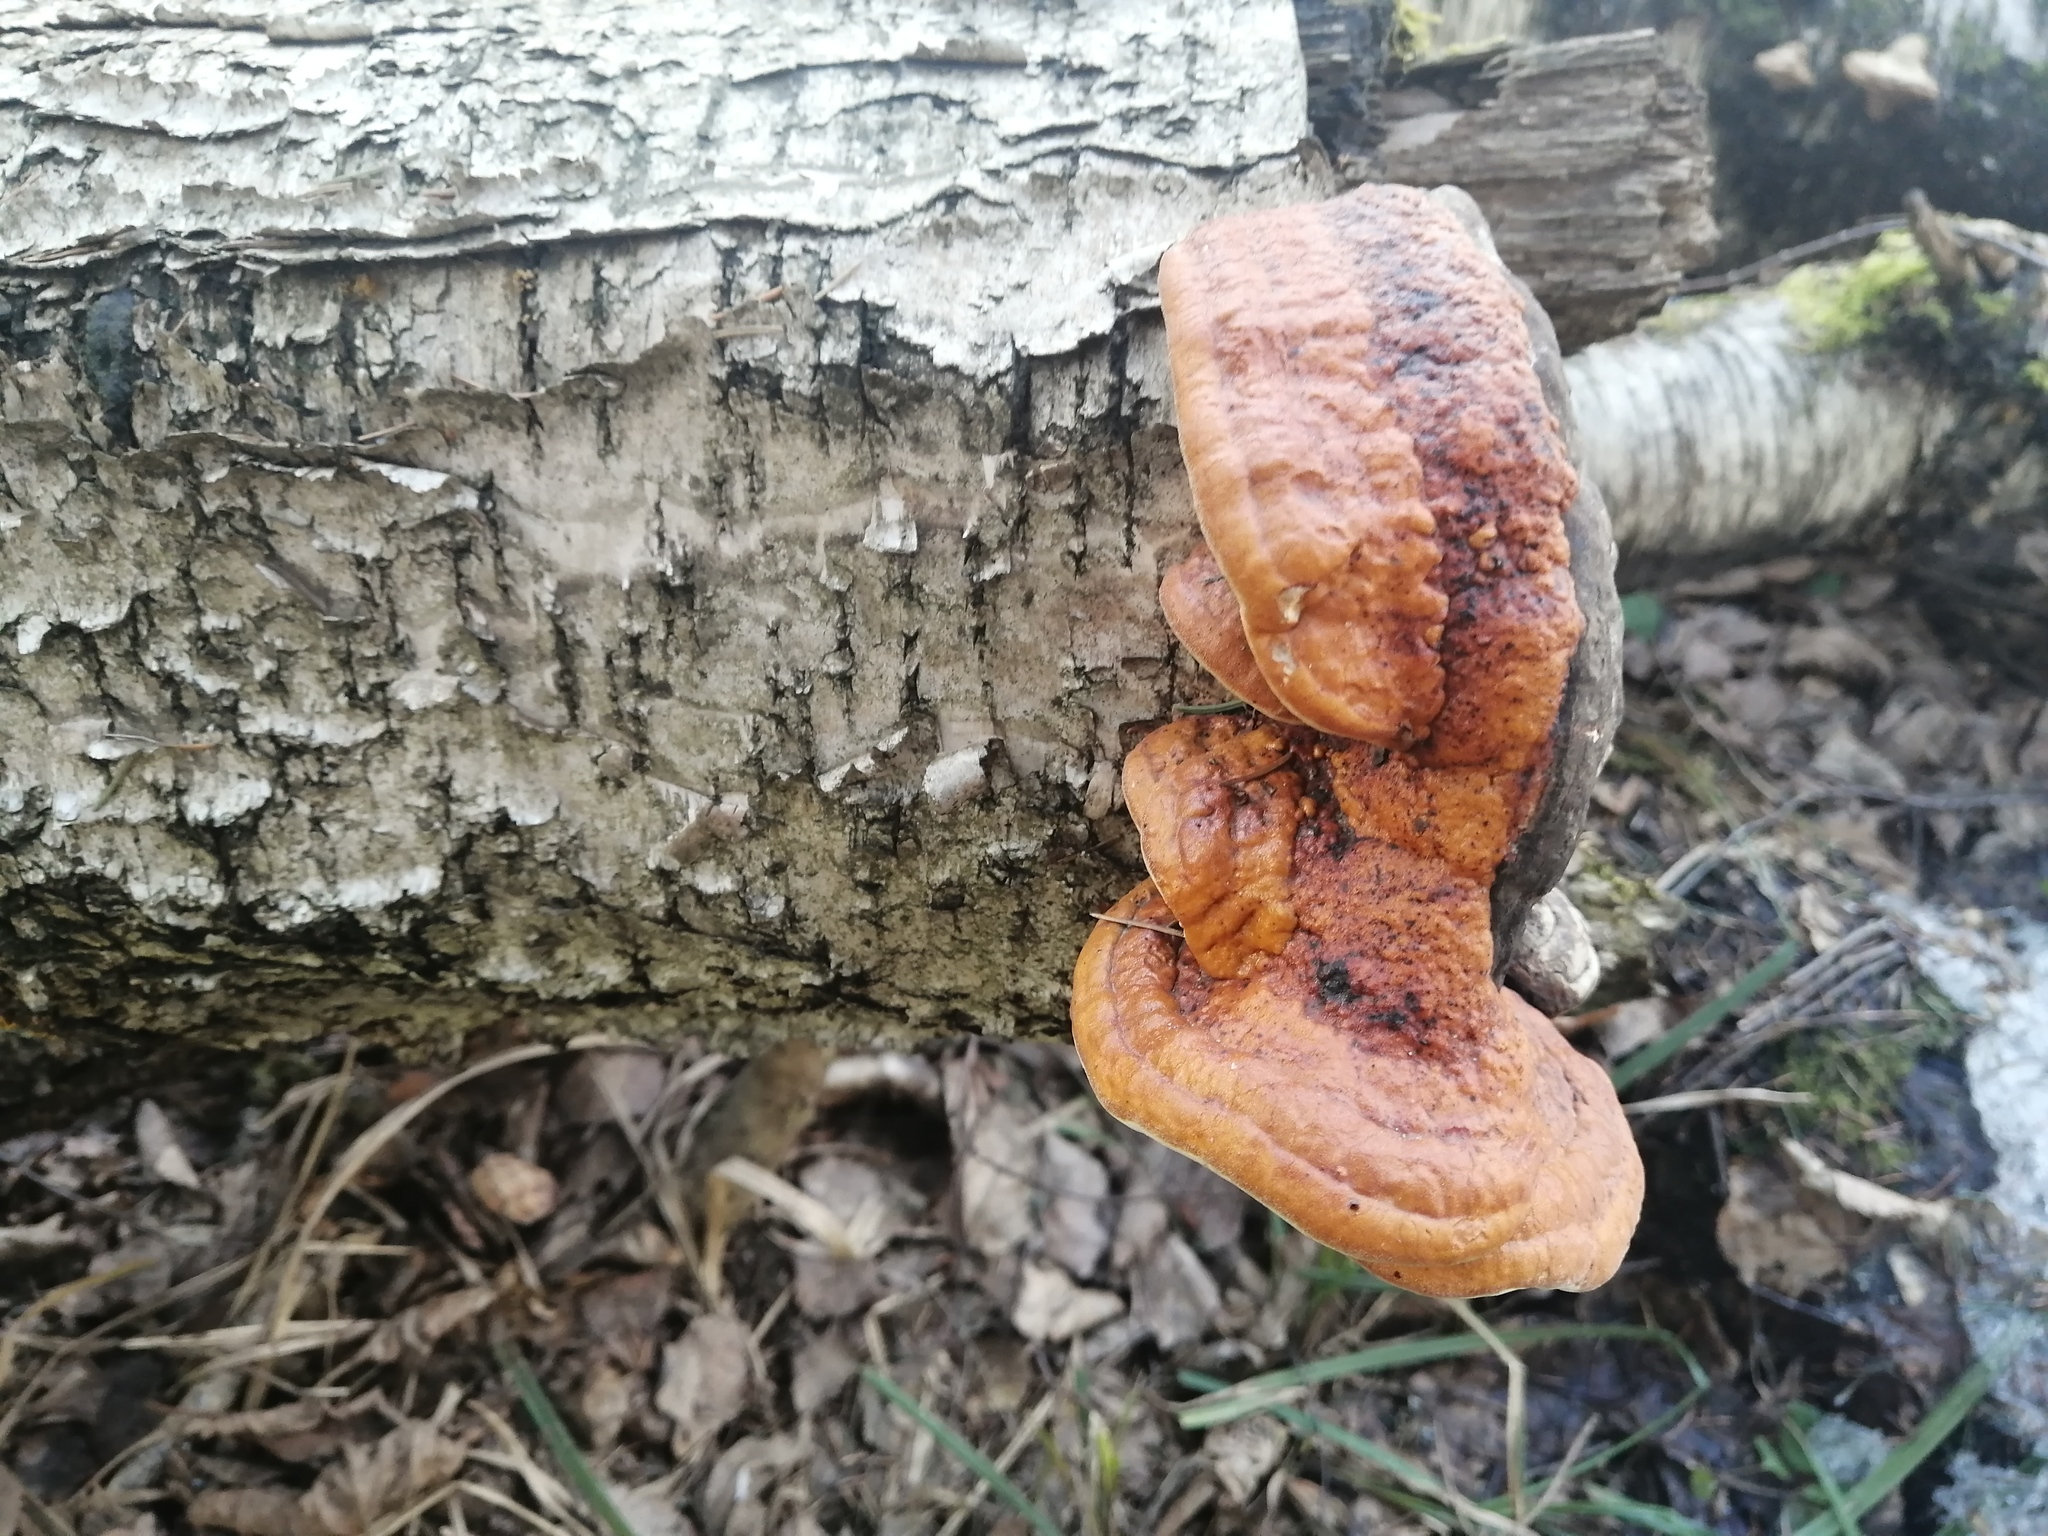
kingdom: Fungi
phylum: Basidiomycota
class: Agaricomycetes
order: Polyporales
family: Fomitopsidaceae
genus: Fomitopsis
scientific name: Fomitopsis pinicola
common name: Red-belted bracket
